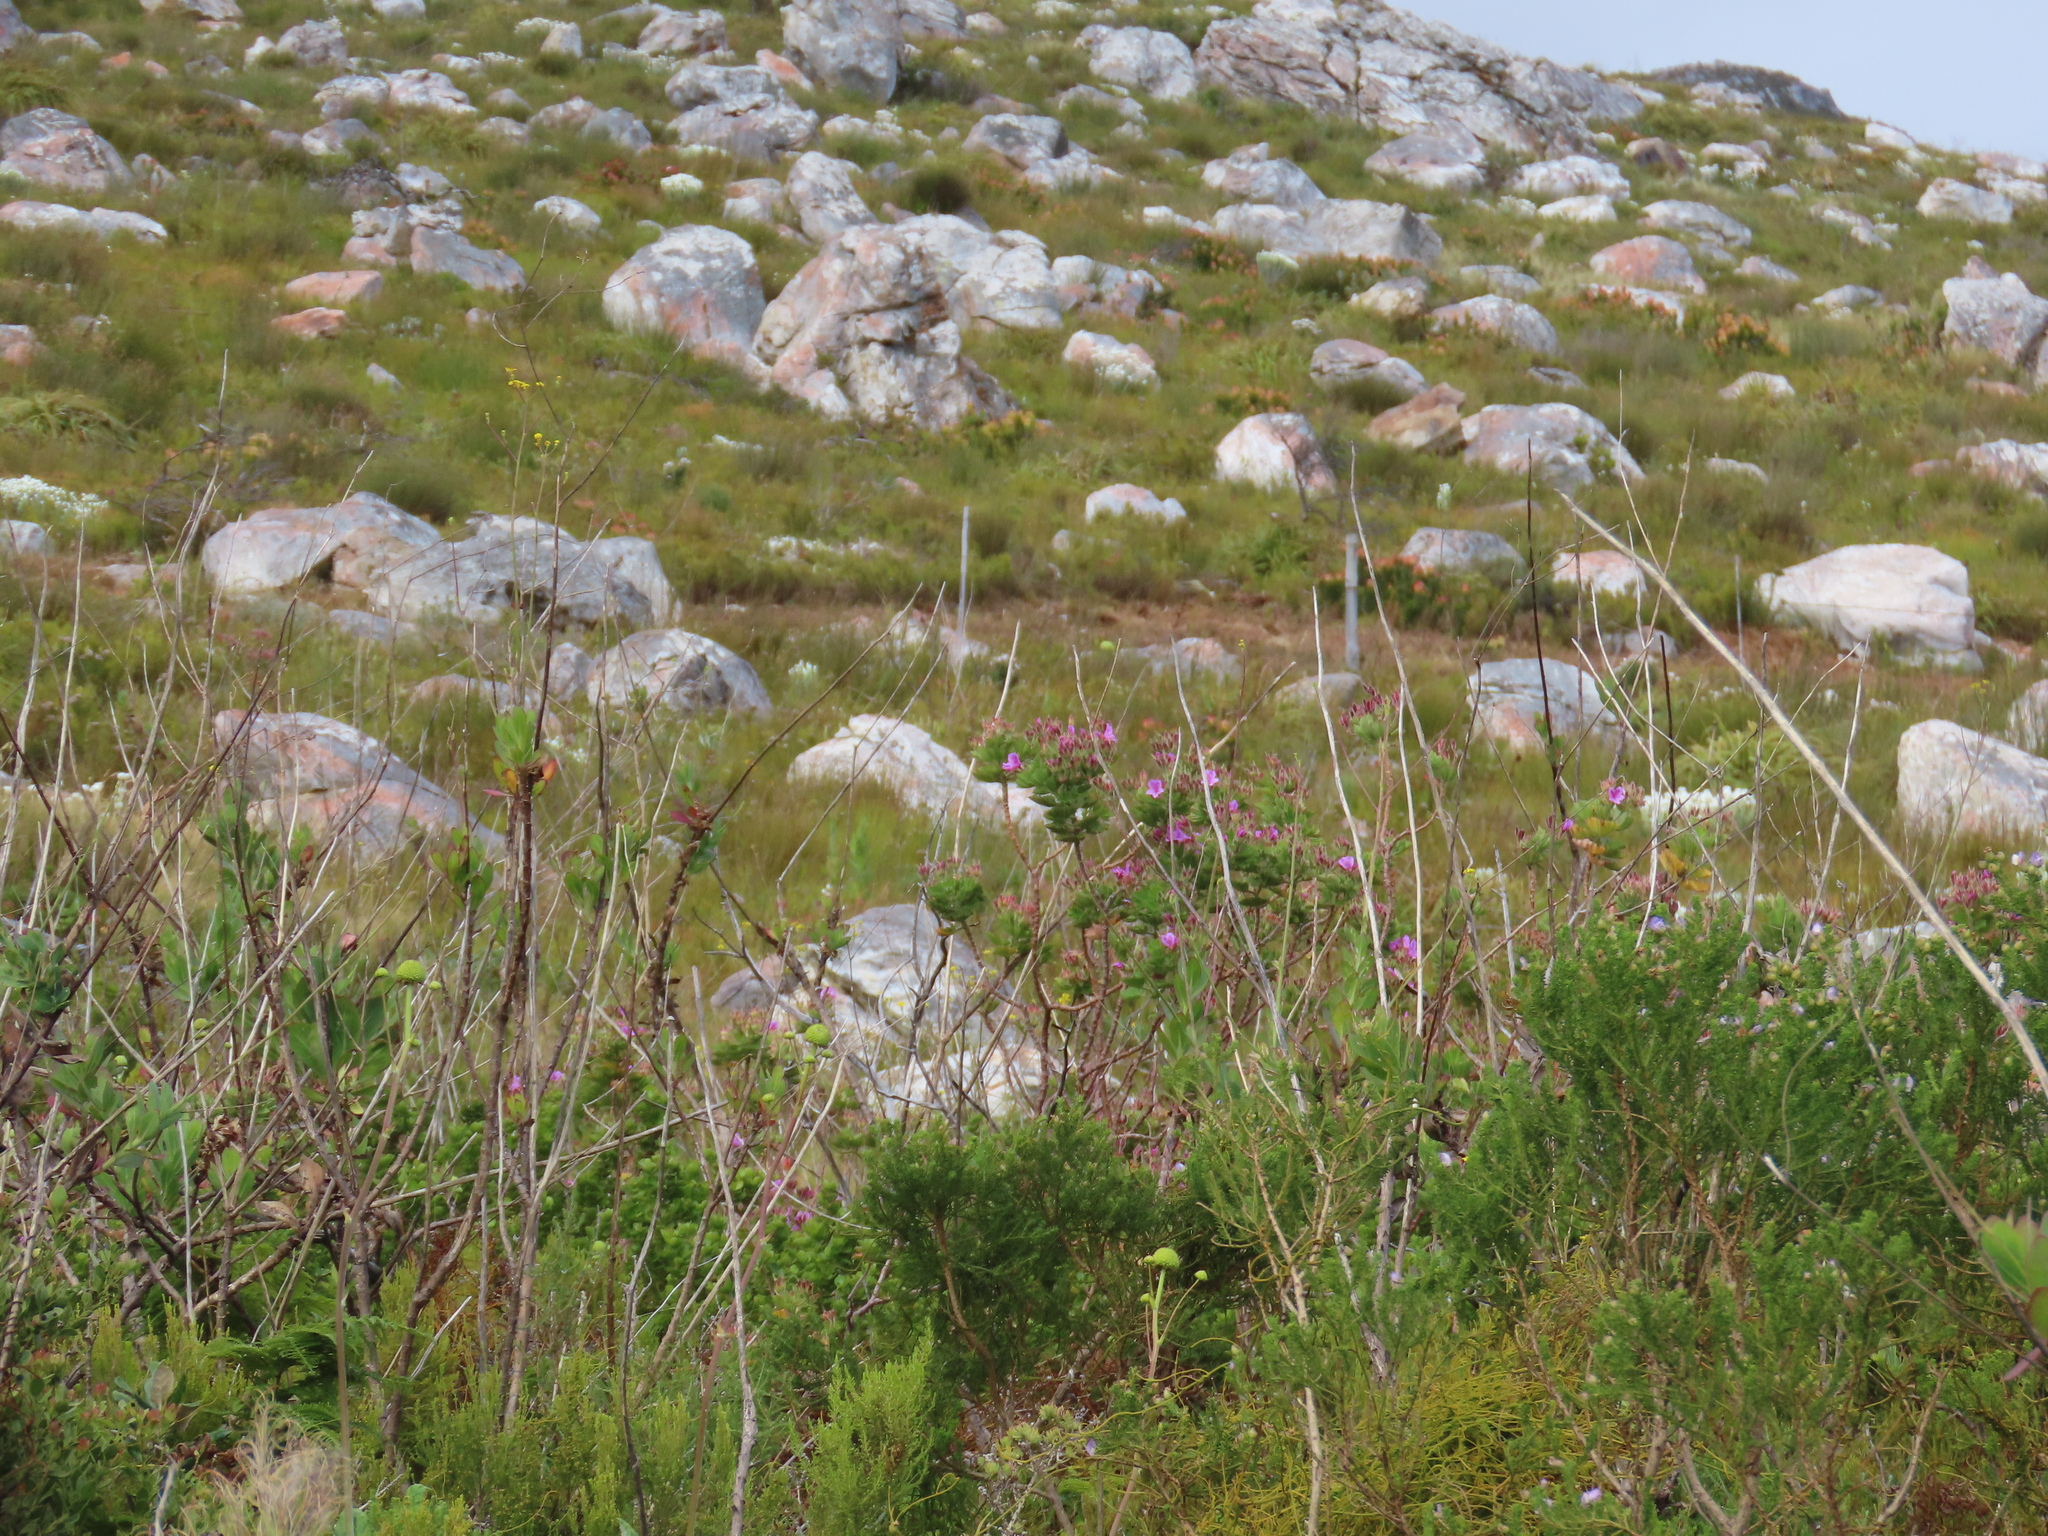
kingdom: Plantae
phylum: Tracheophyta
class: Magnoliopsida
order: Geraniales
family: Geraniaceae
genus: Pelargonium
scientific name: Pelargonium cucullatum
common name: Tree pelargonium
